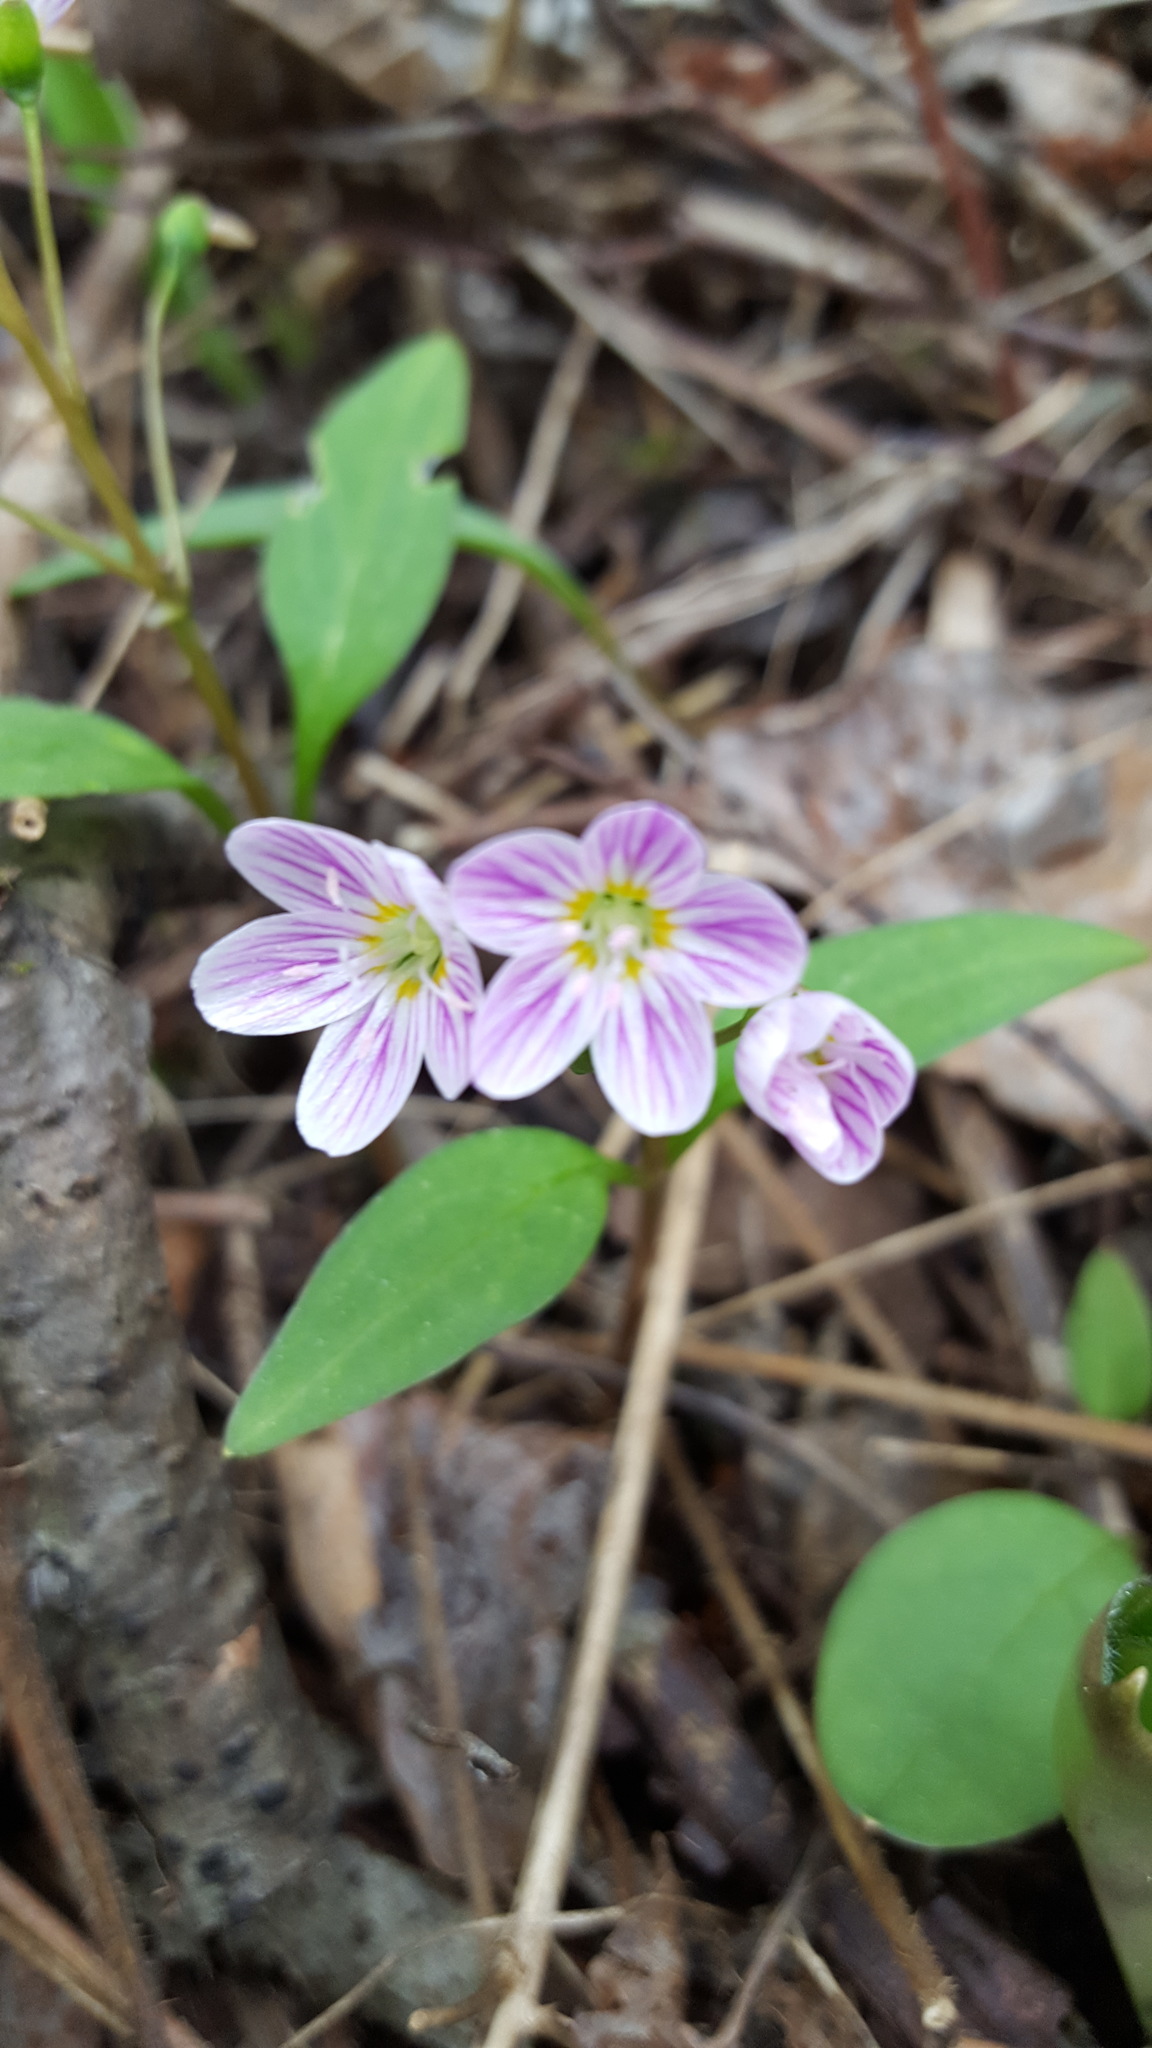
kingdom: Plantae
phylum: Tracheophyta
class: Magnoliopsida
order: Caryophyllales
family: Montiaceae
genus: Claytonia
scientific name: Claytonia caroliniana
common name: Carolina spring beauty
